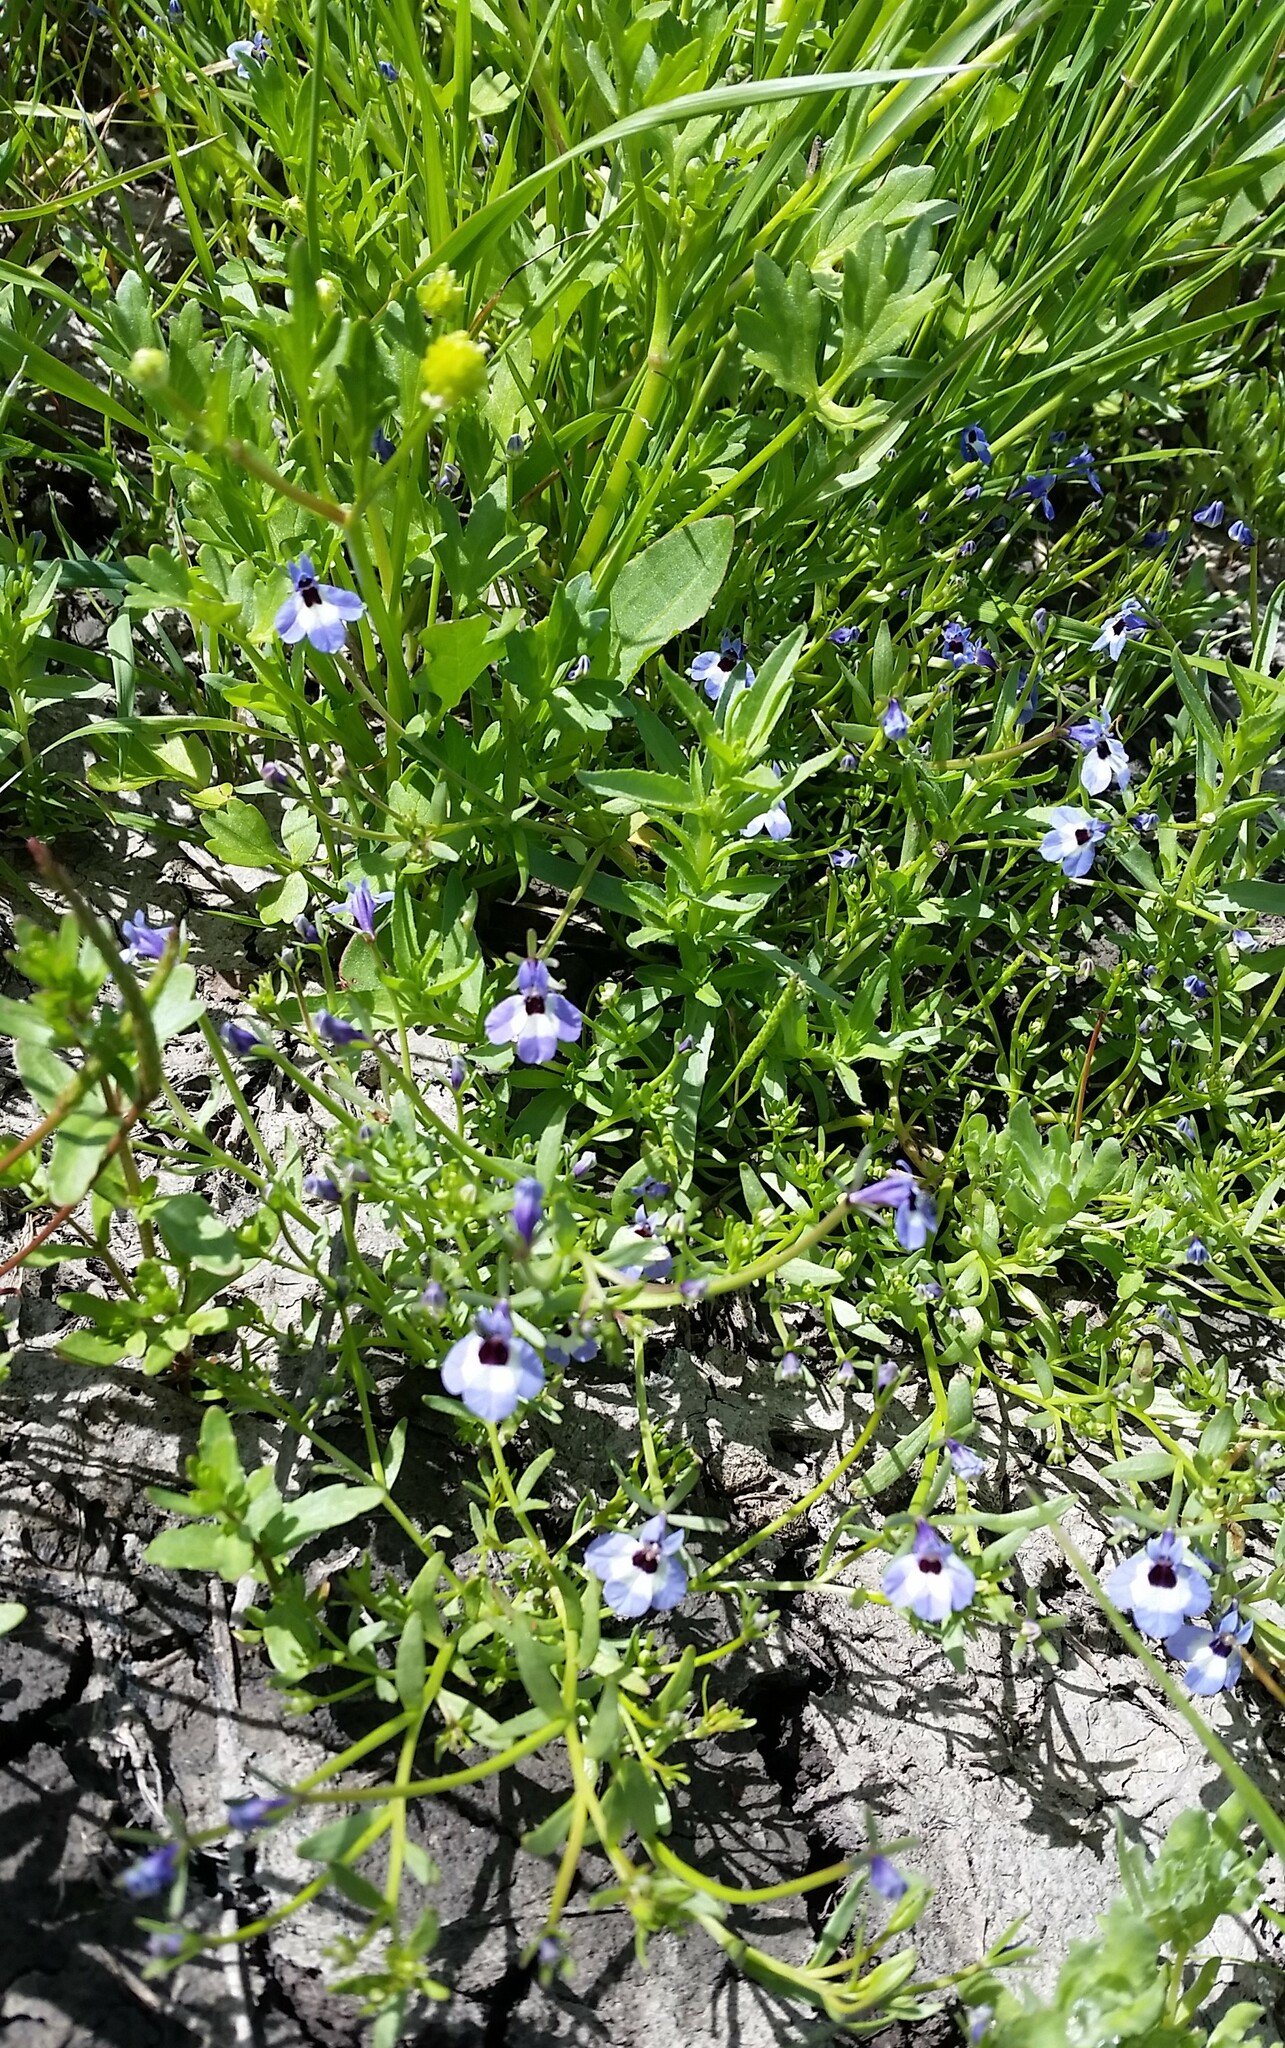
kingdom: Plantae
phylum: Tracheophyta
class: Magnoliopsida
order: Asterales
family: Campanulaceae
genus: Downingia
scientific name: Downingia concolor
